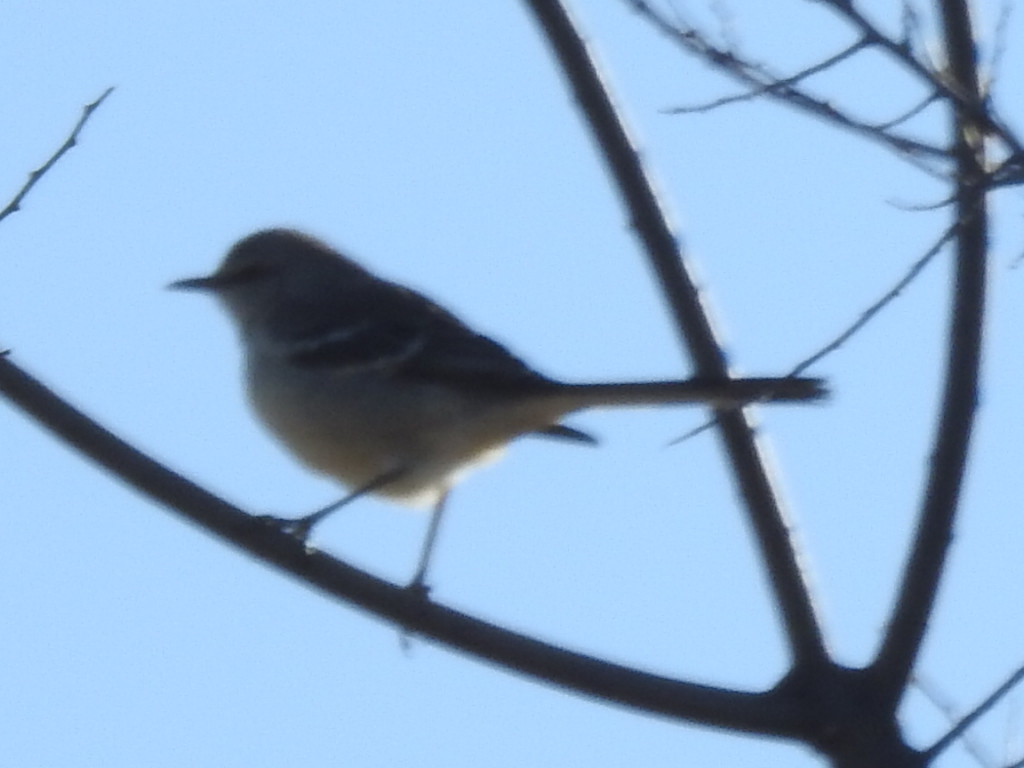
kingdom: Animalia
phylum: Chordata
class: Aves
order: Passeriformes
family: Mimidae
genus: Mimus
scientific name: Mimus polyglottos
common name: Northern mockingbird
